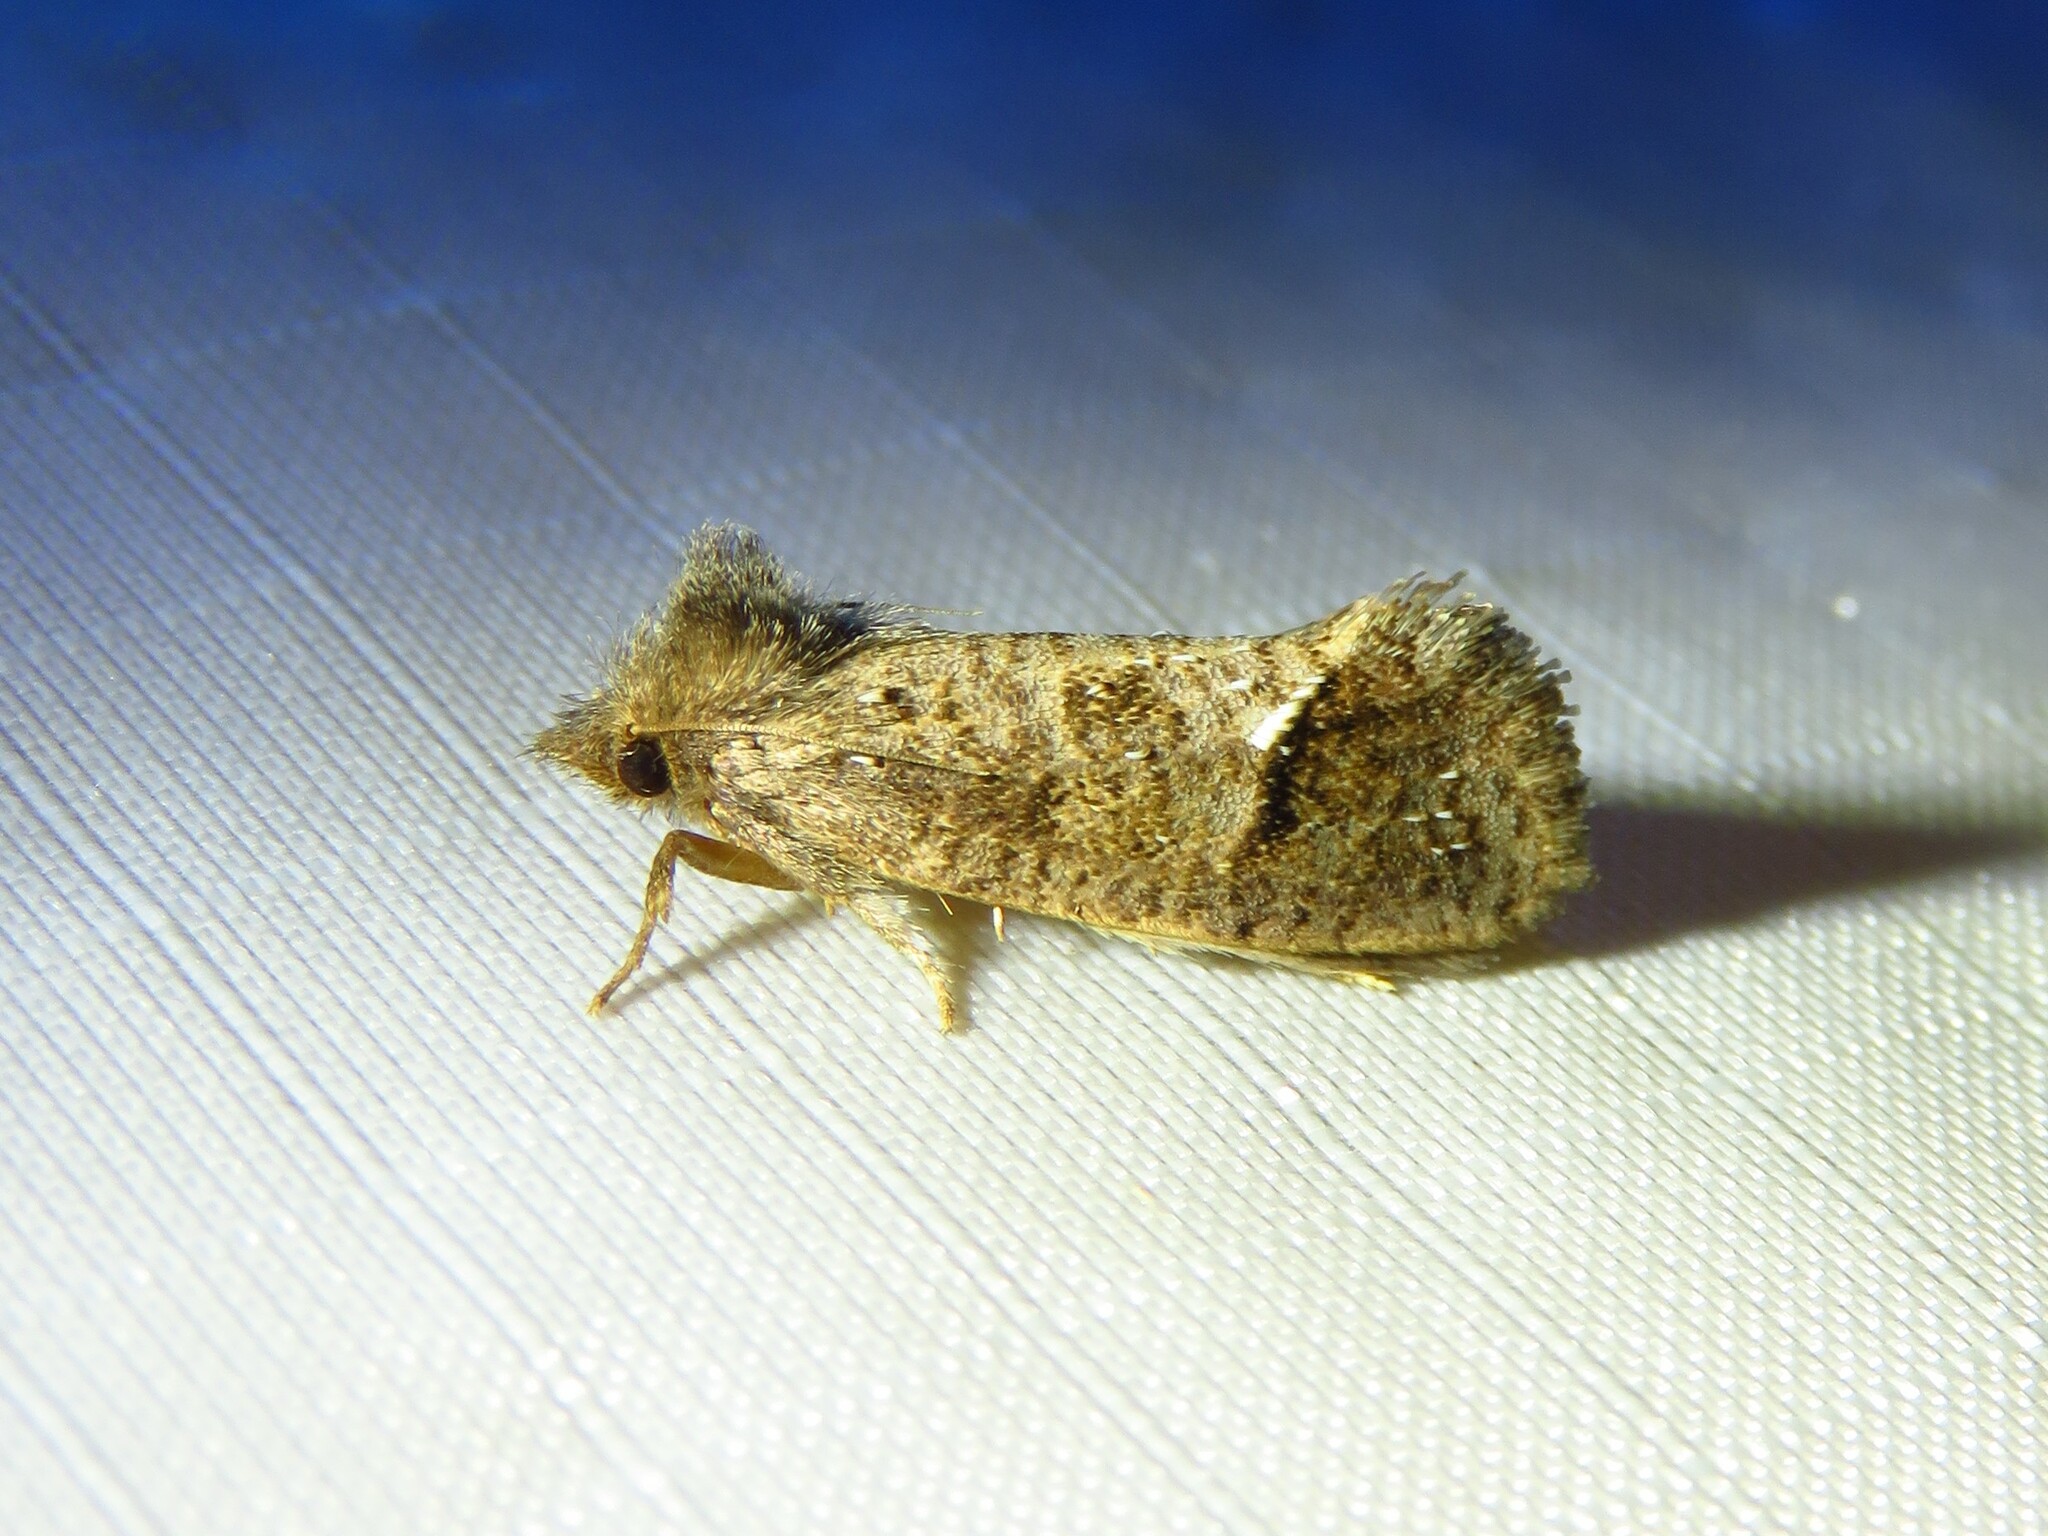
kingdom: Animalia
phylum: Arthropoda
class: Insecta
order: Lepidoptera
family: Tineidae
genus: Acrolophus
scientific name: Acrolophus texanella
